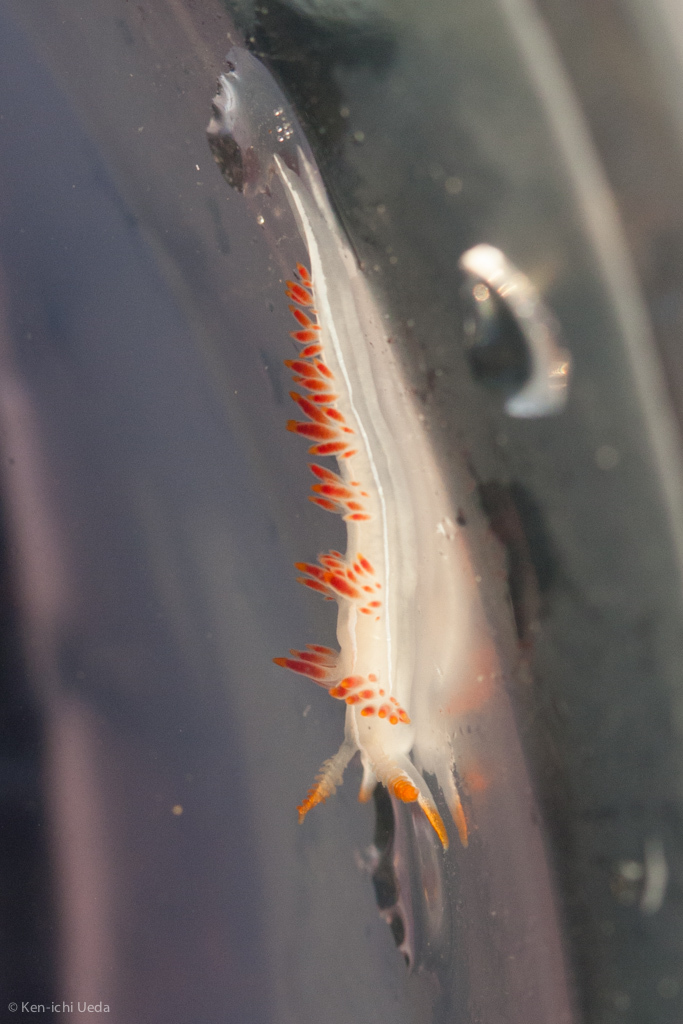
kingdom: Animalia
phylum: Mollusca
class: Gastropoda
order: Nudibranchia
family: Coryphellidae
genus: Coryphella
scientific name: Coryphella trilineata
